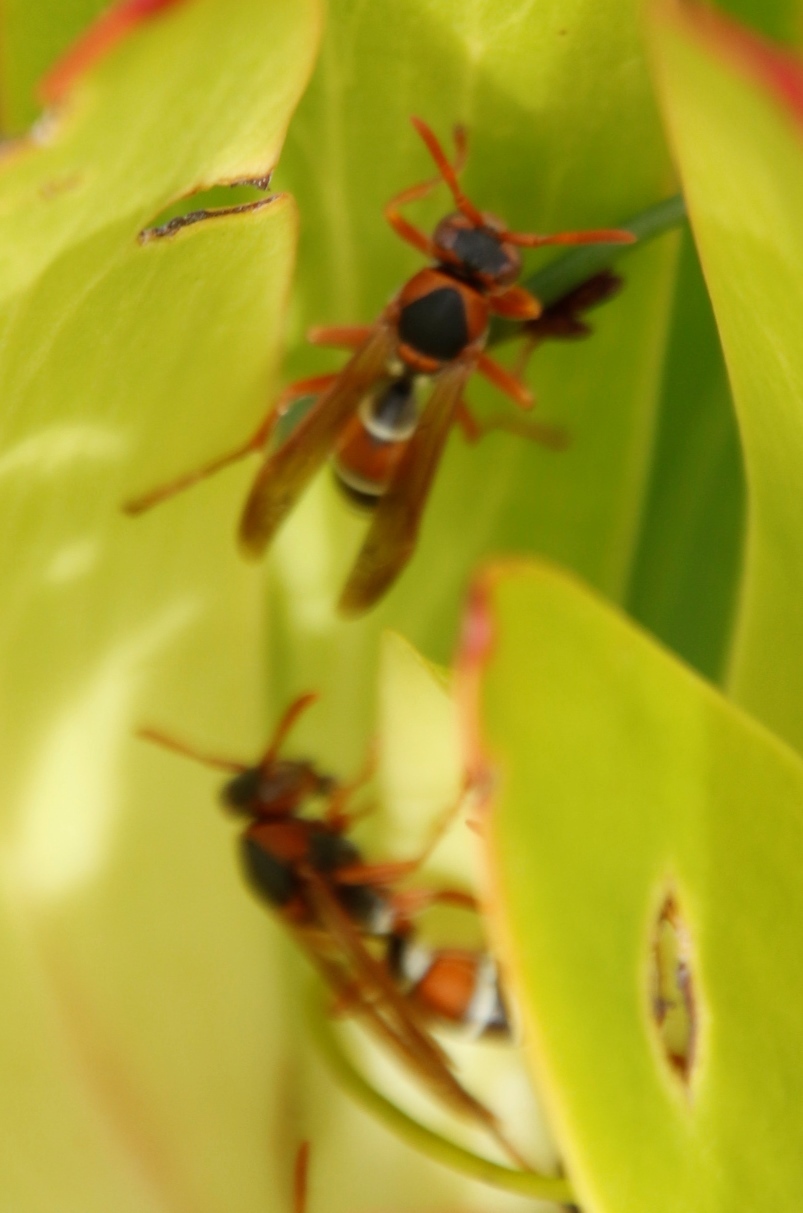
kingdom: Animalia
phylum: Arthropoda
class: Insecta
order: Hymenoptera
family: Eumenidae
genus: Polistes
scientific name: Polistes marginalis
